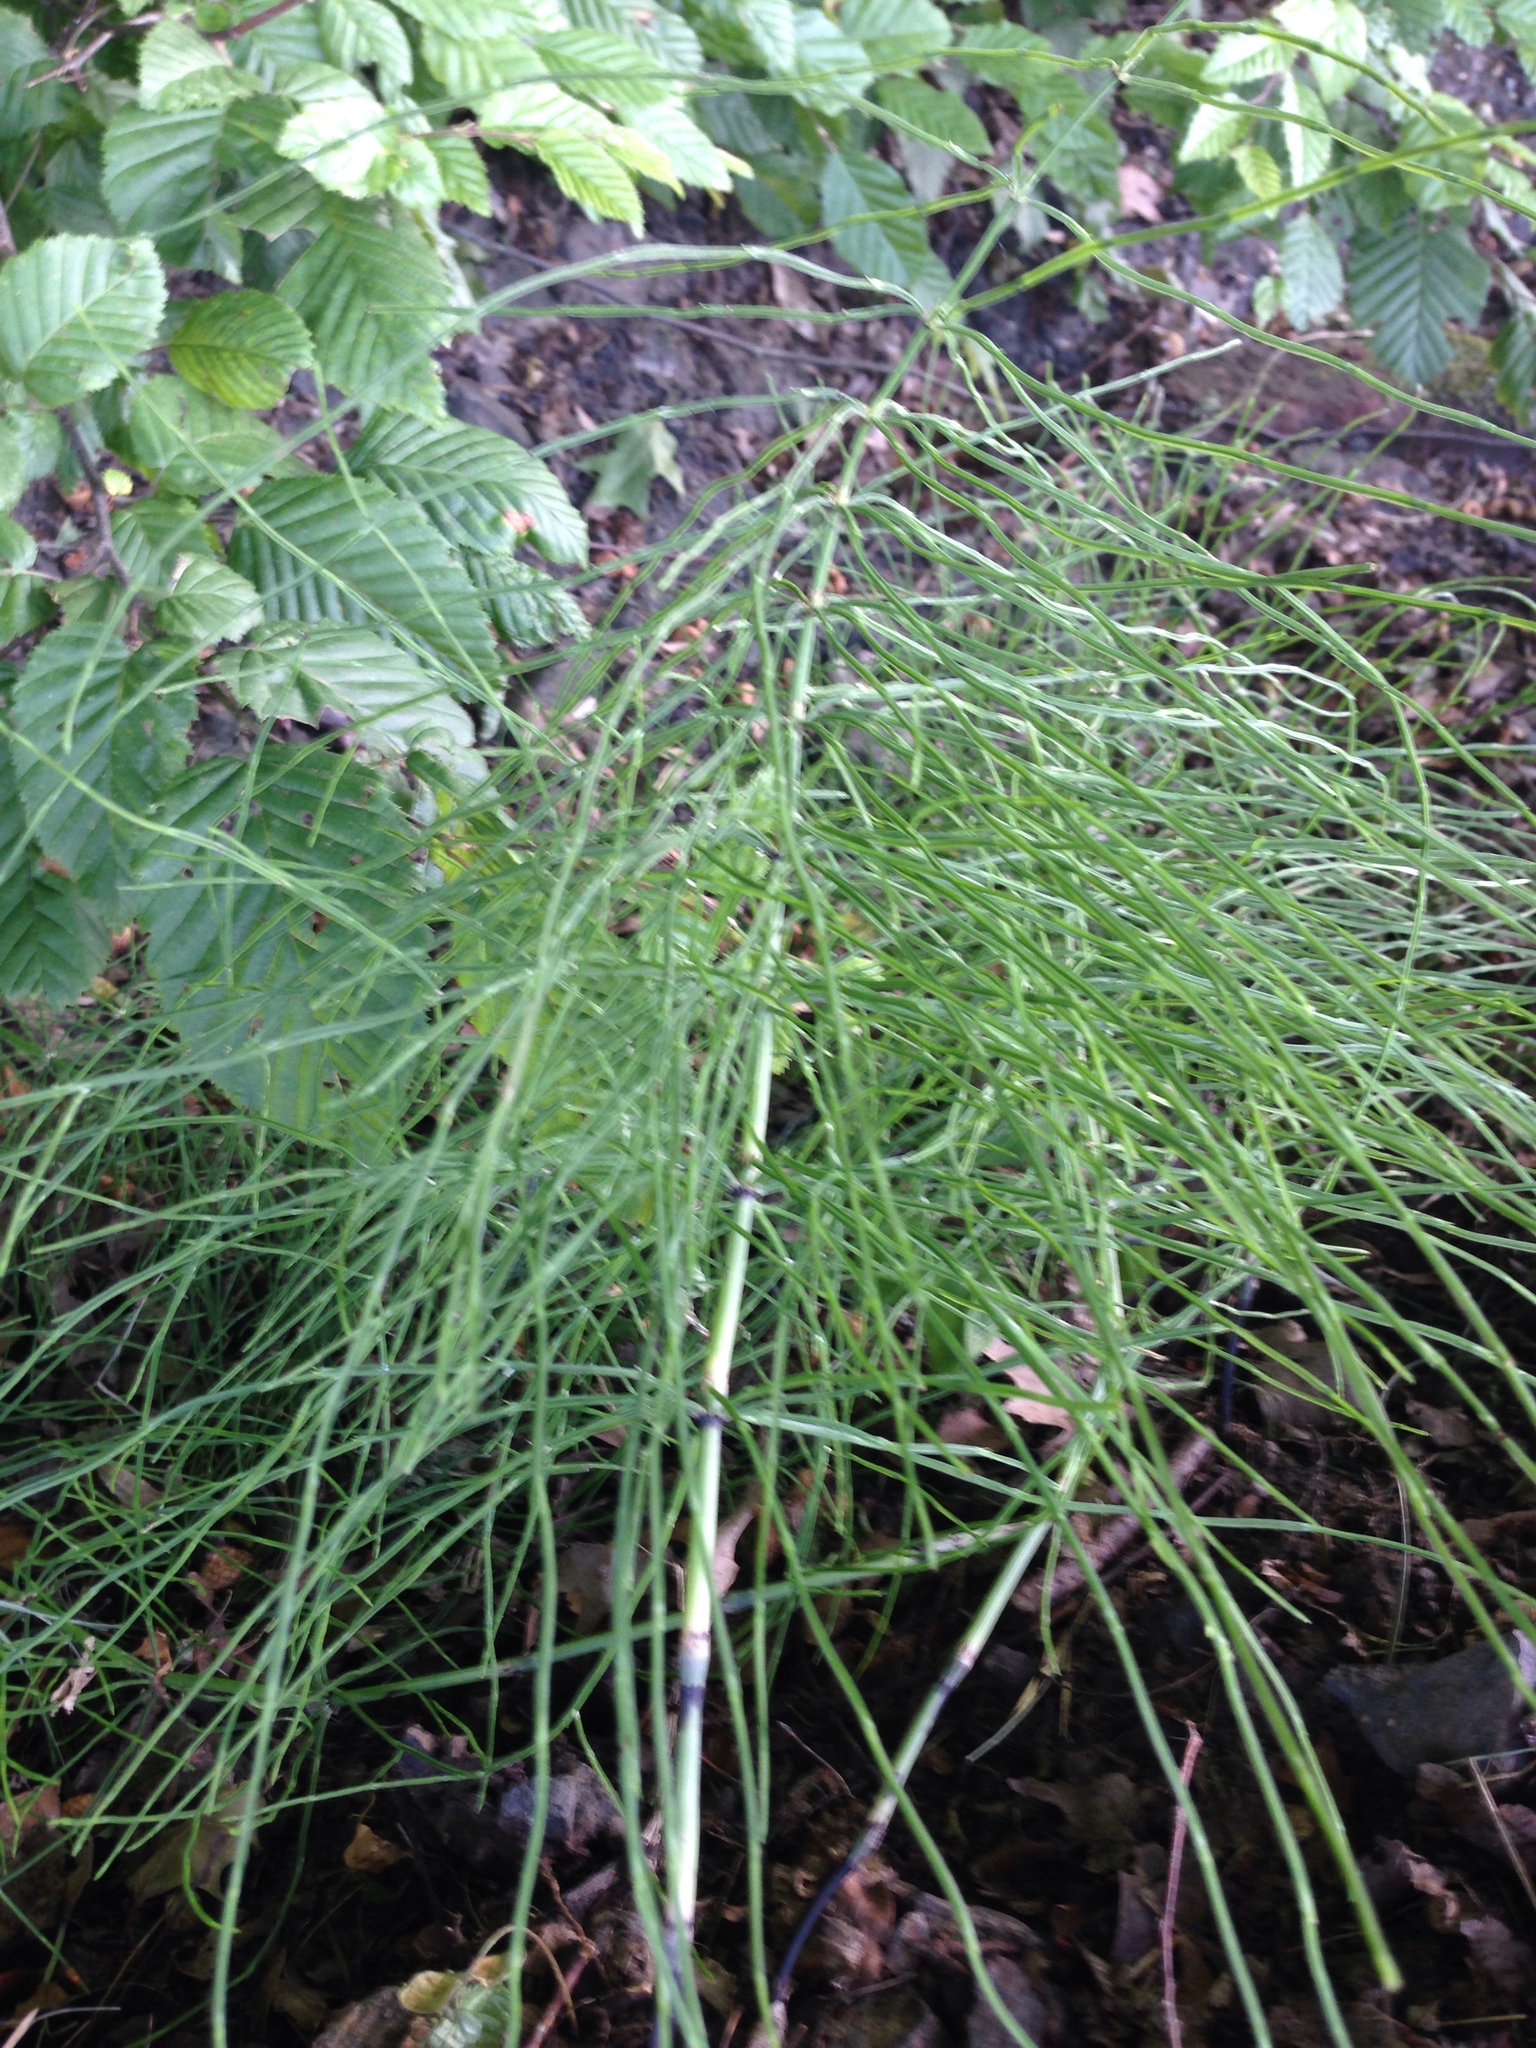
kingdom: Plantae
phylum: Tracheophyta
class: Polypodiopsida
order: Equisetales
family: Equisetaceae
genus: Equisetum
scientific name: Equisetum arvense
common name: Field horsetail
